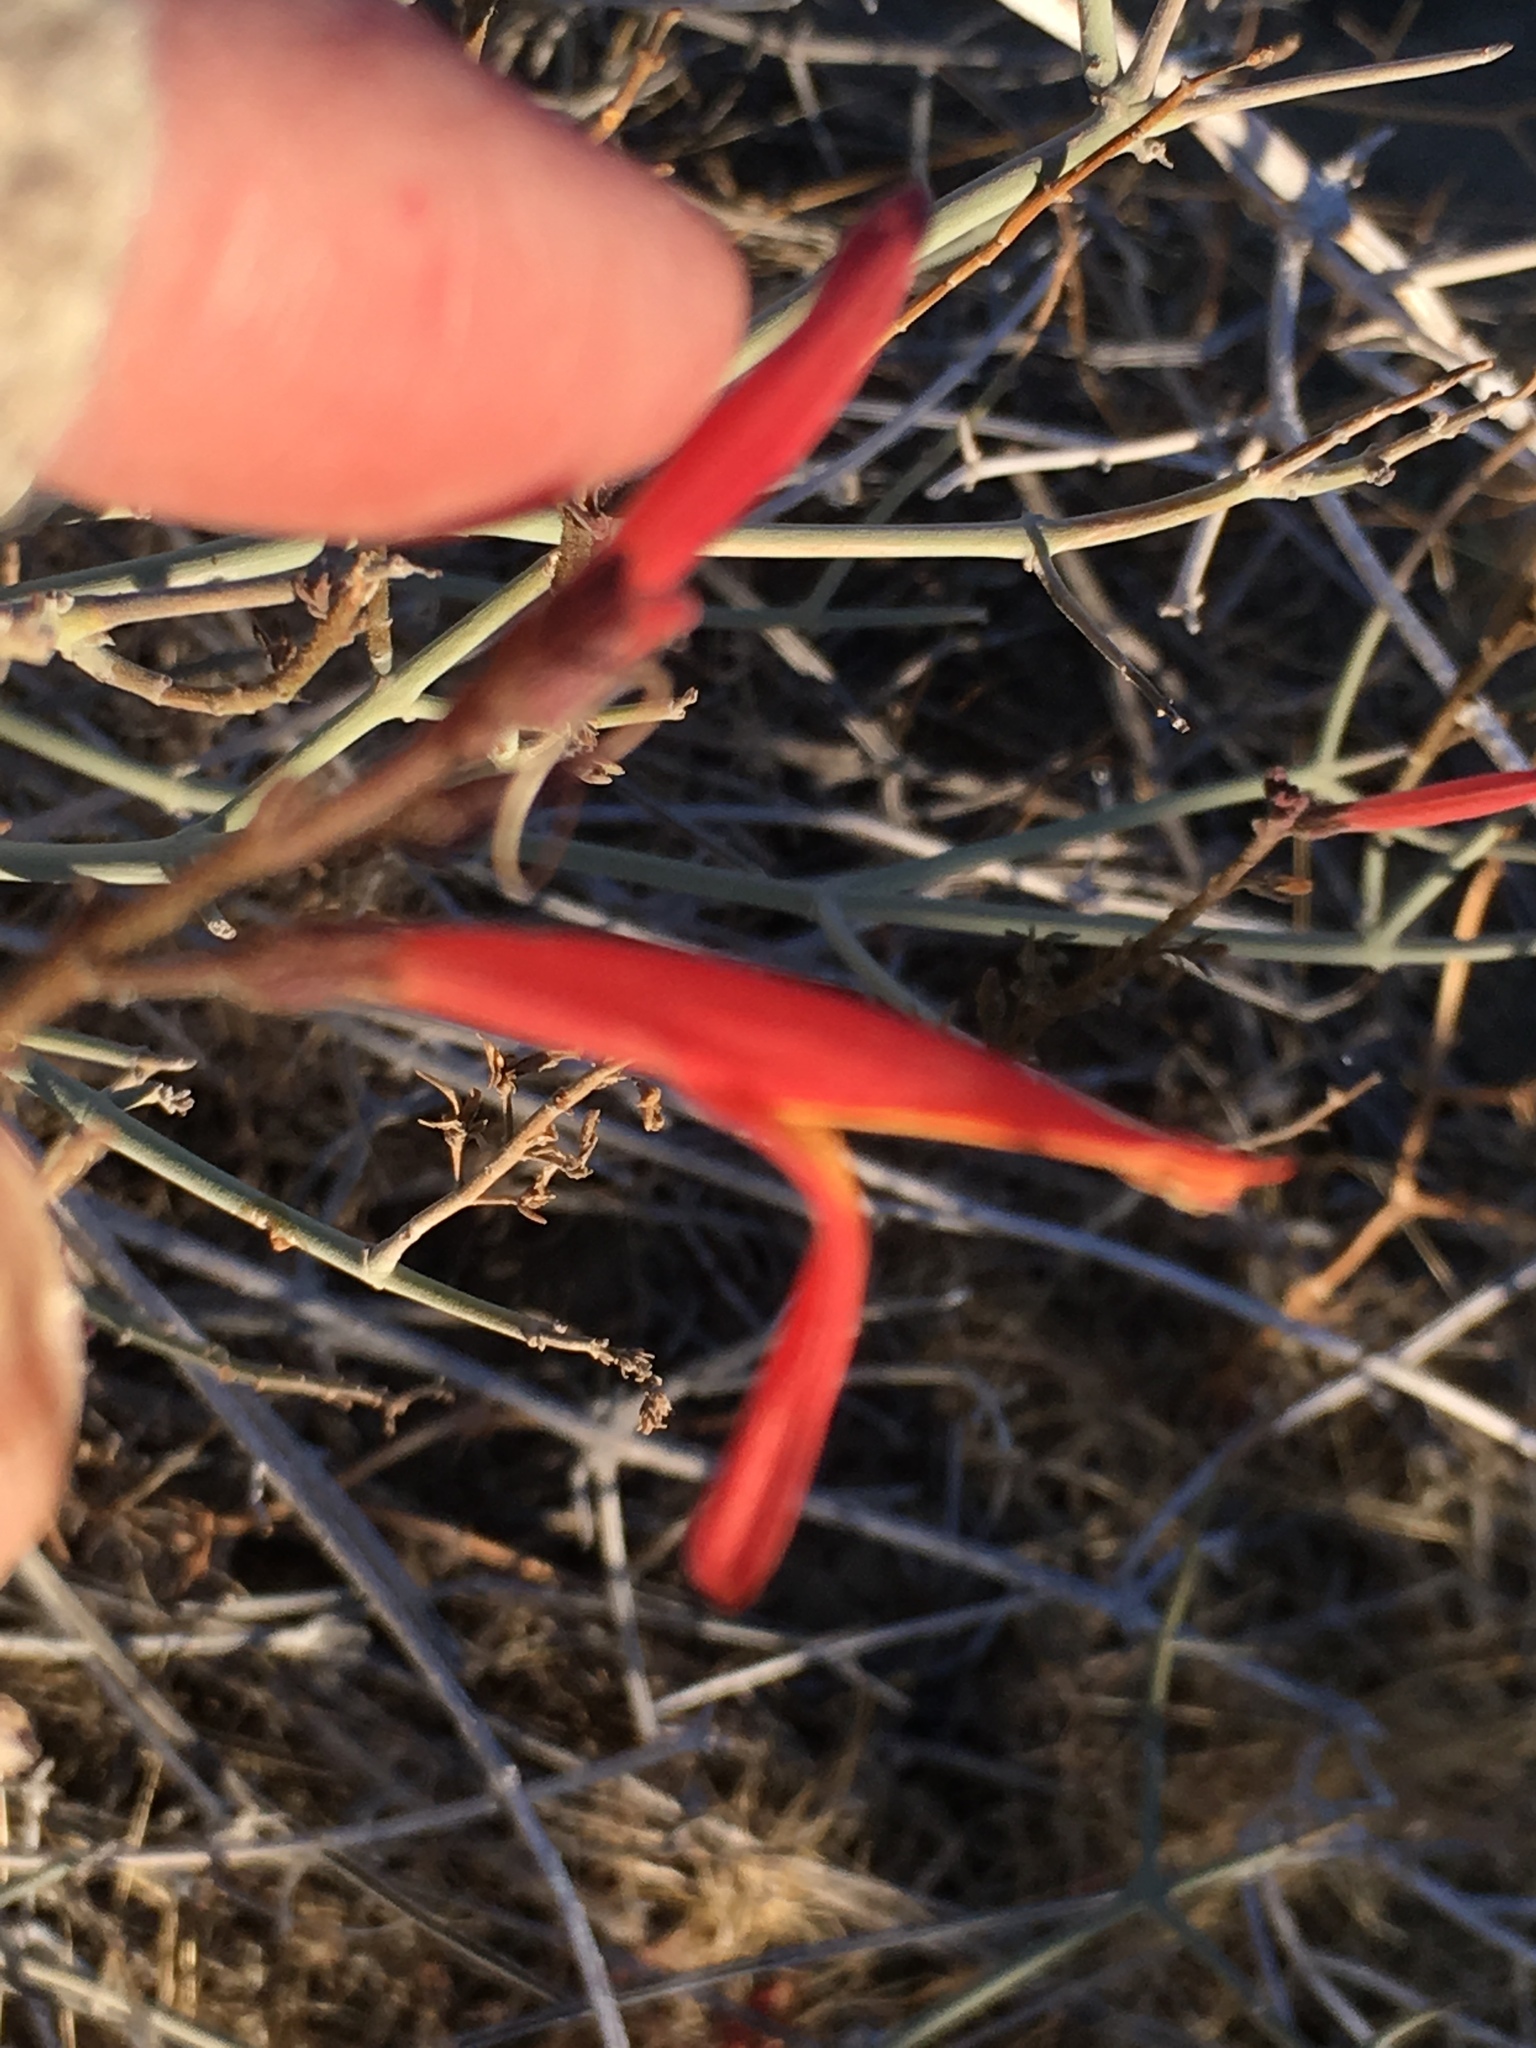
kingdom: Plantae
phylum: Tracheophyta
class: Magnoliopsida
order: Lamiales
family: Acanthaceae
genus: Justicia
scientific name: Justicia californica
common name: Chuparosa-honeysuckle
